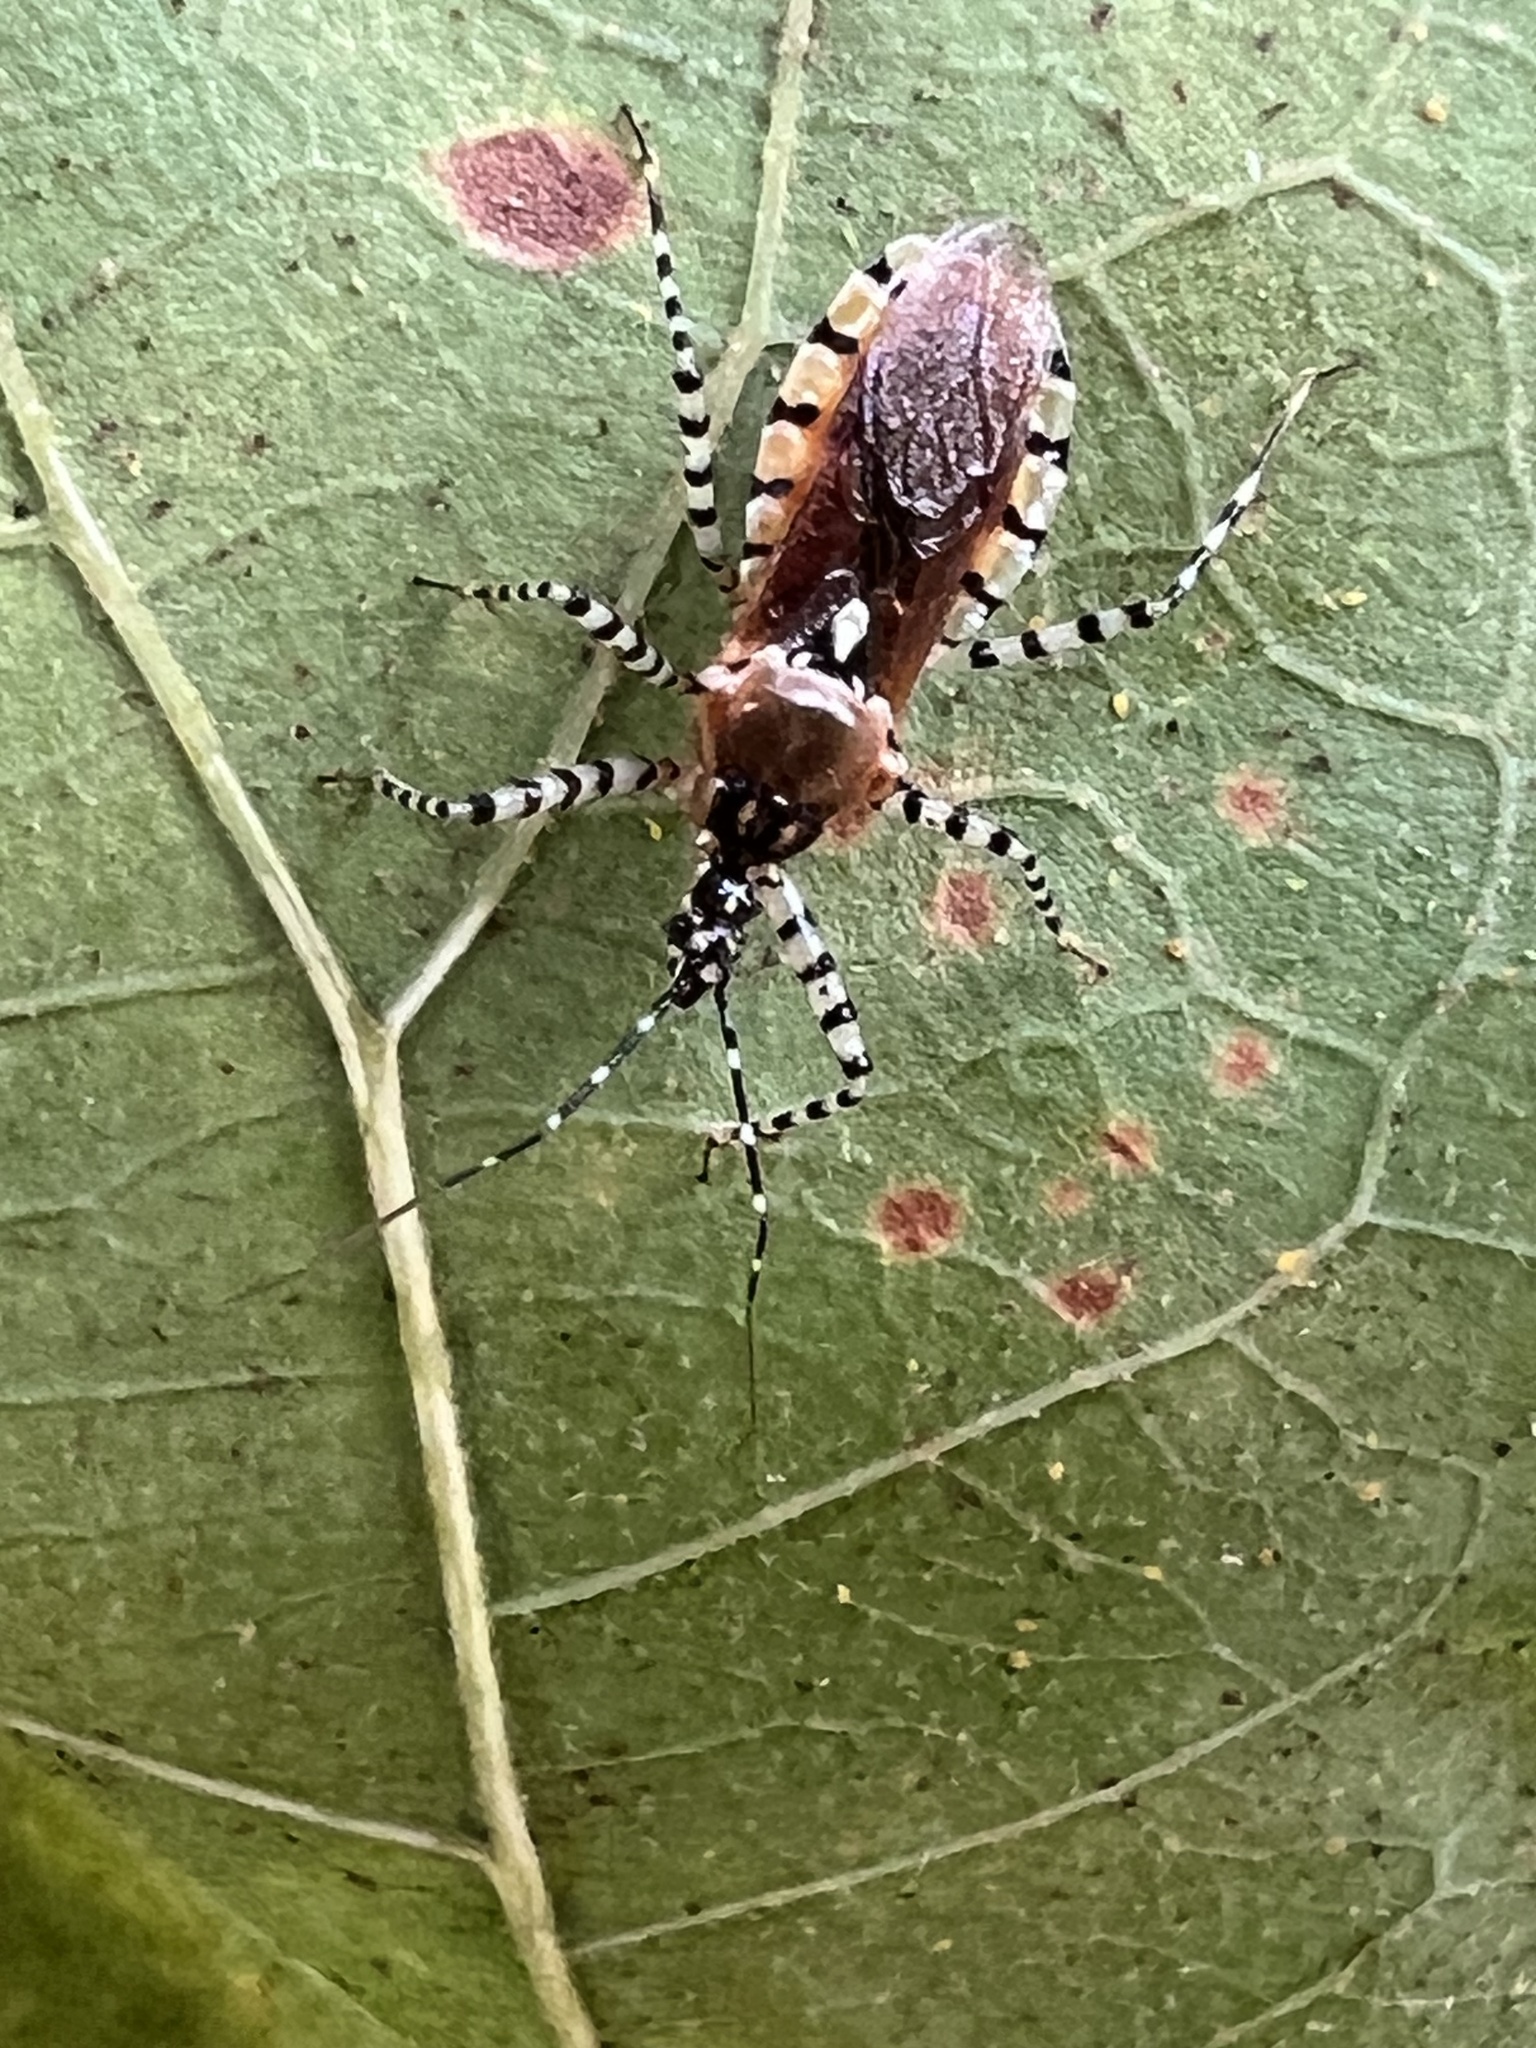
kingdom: Animalia
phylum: Arthropoda
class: Insecta
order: Hemiptera
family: Reduviidae
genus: Pselliopus
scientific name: Pselliopus cinctus
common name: Ringed assassin bug
